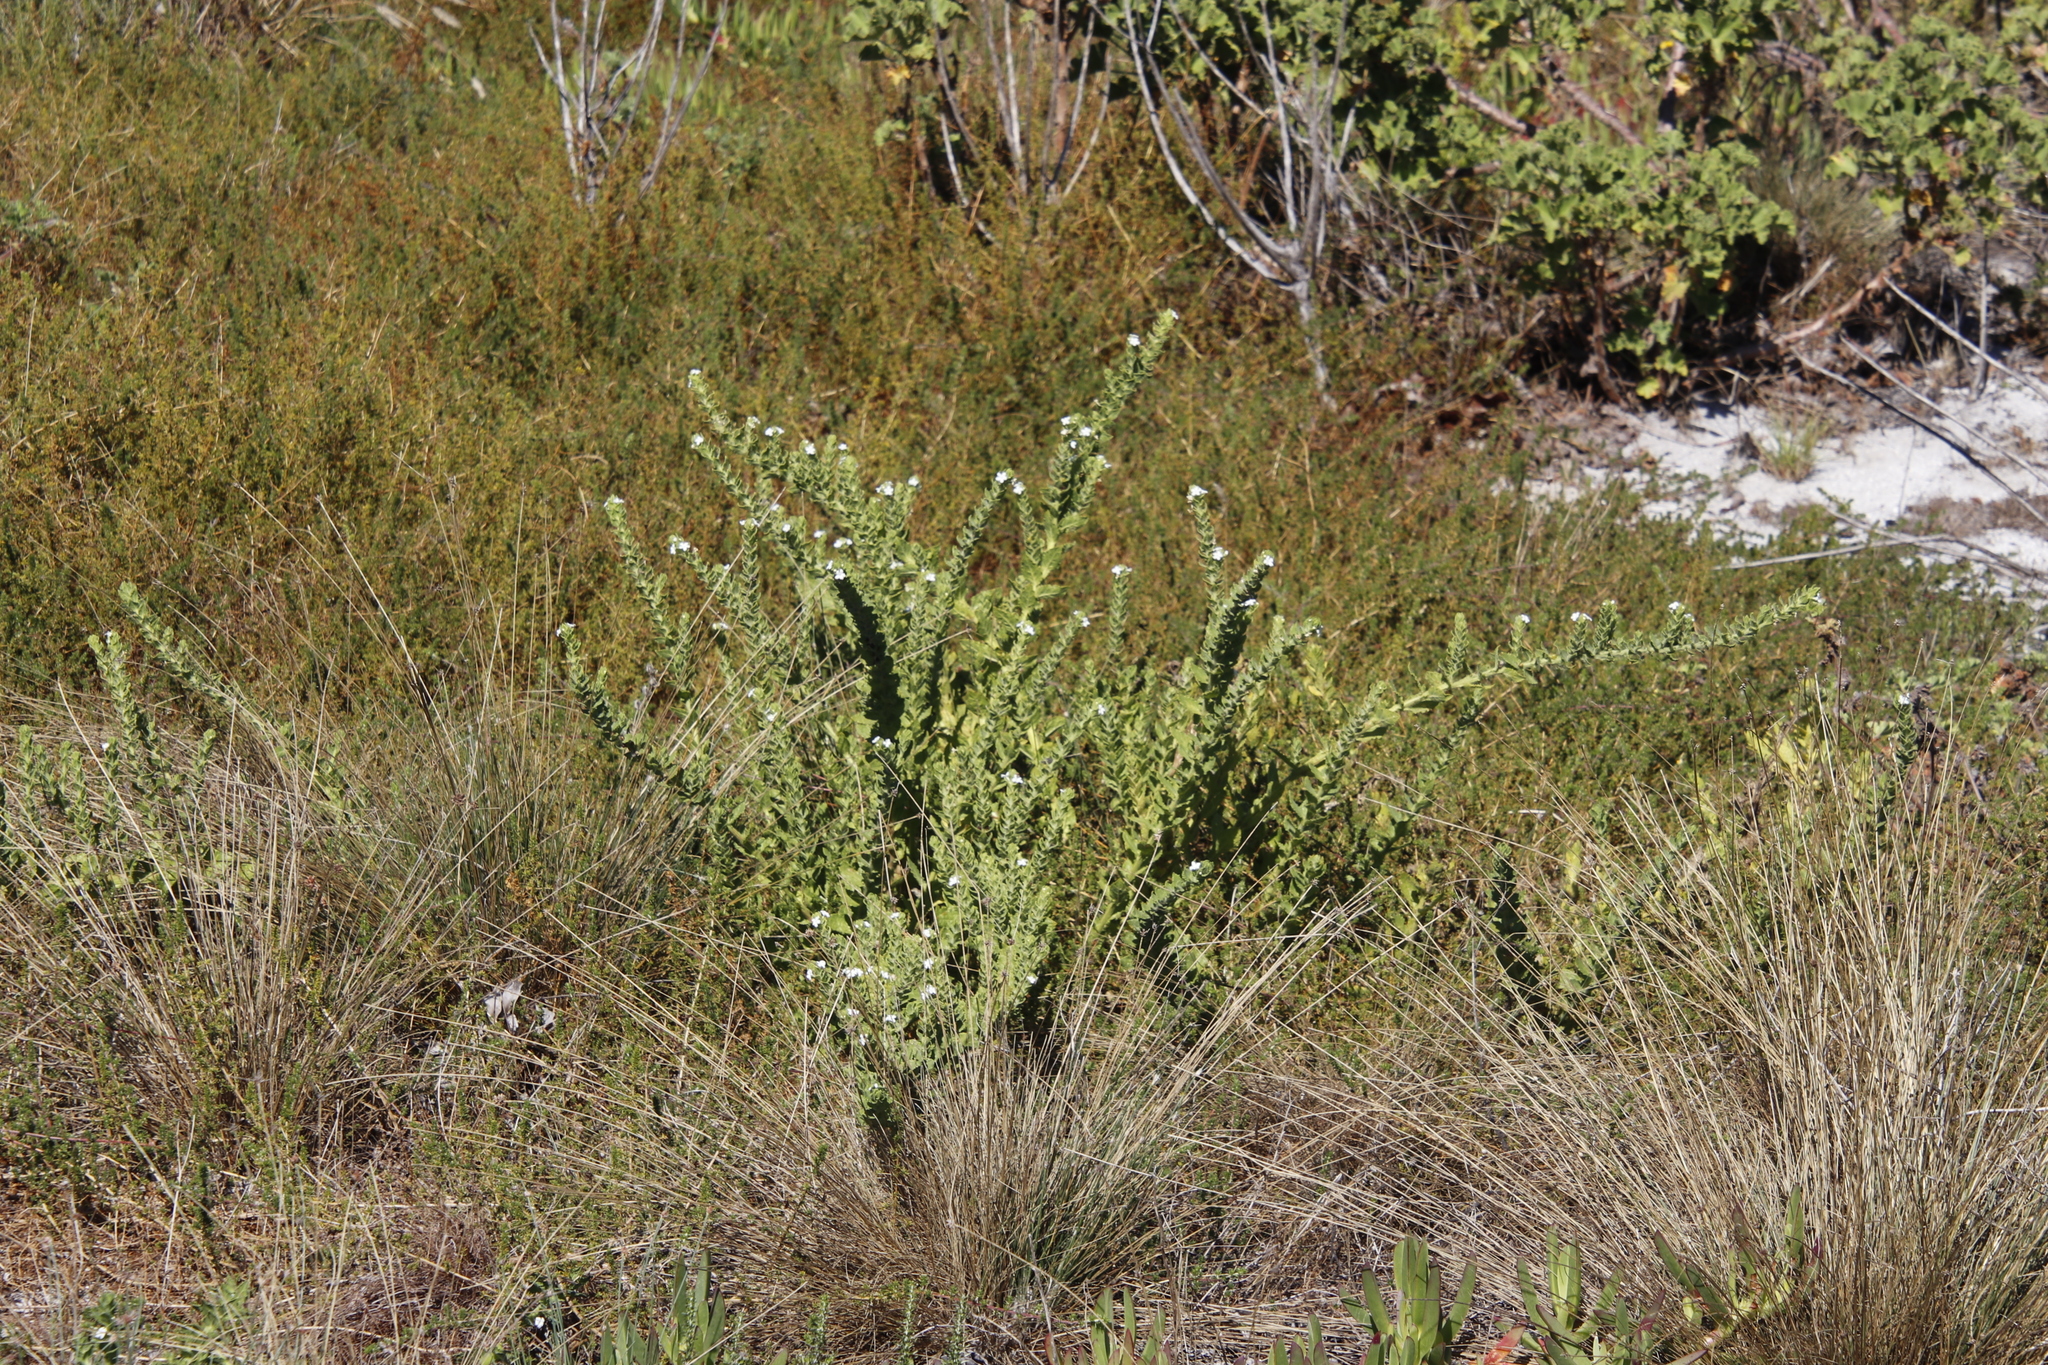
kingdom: Plantae
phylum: Tracheophyta
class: Magnoliopsida
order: Lamiales
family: Scrophulariaceae
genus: Oftia
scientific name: Oftia africana
